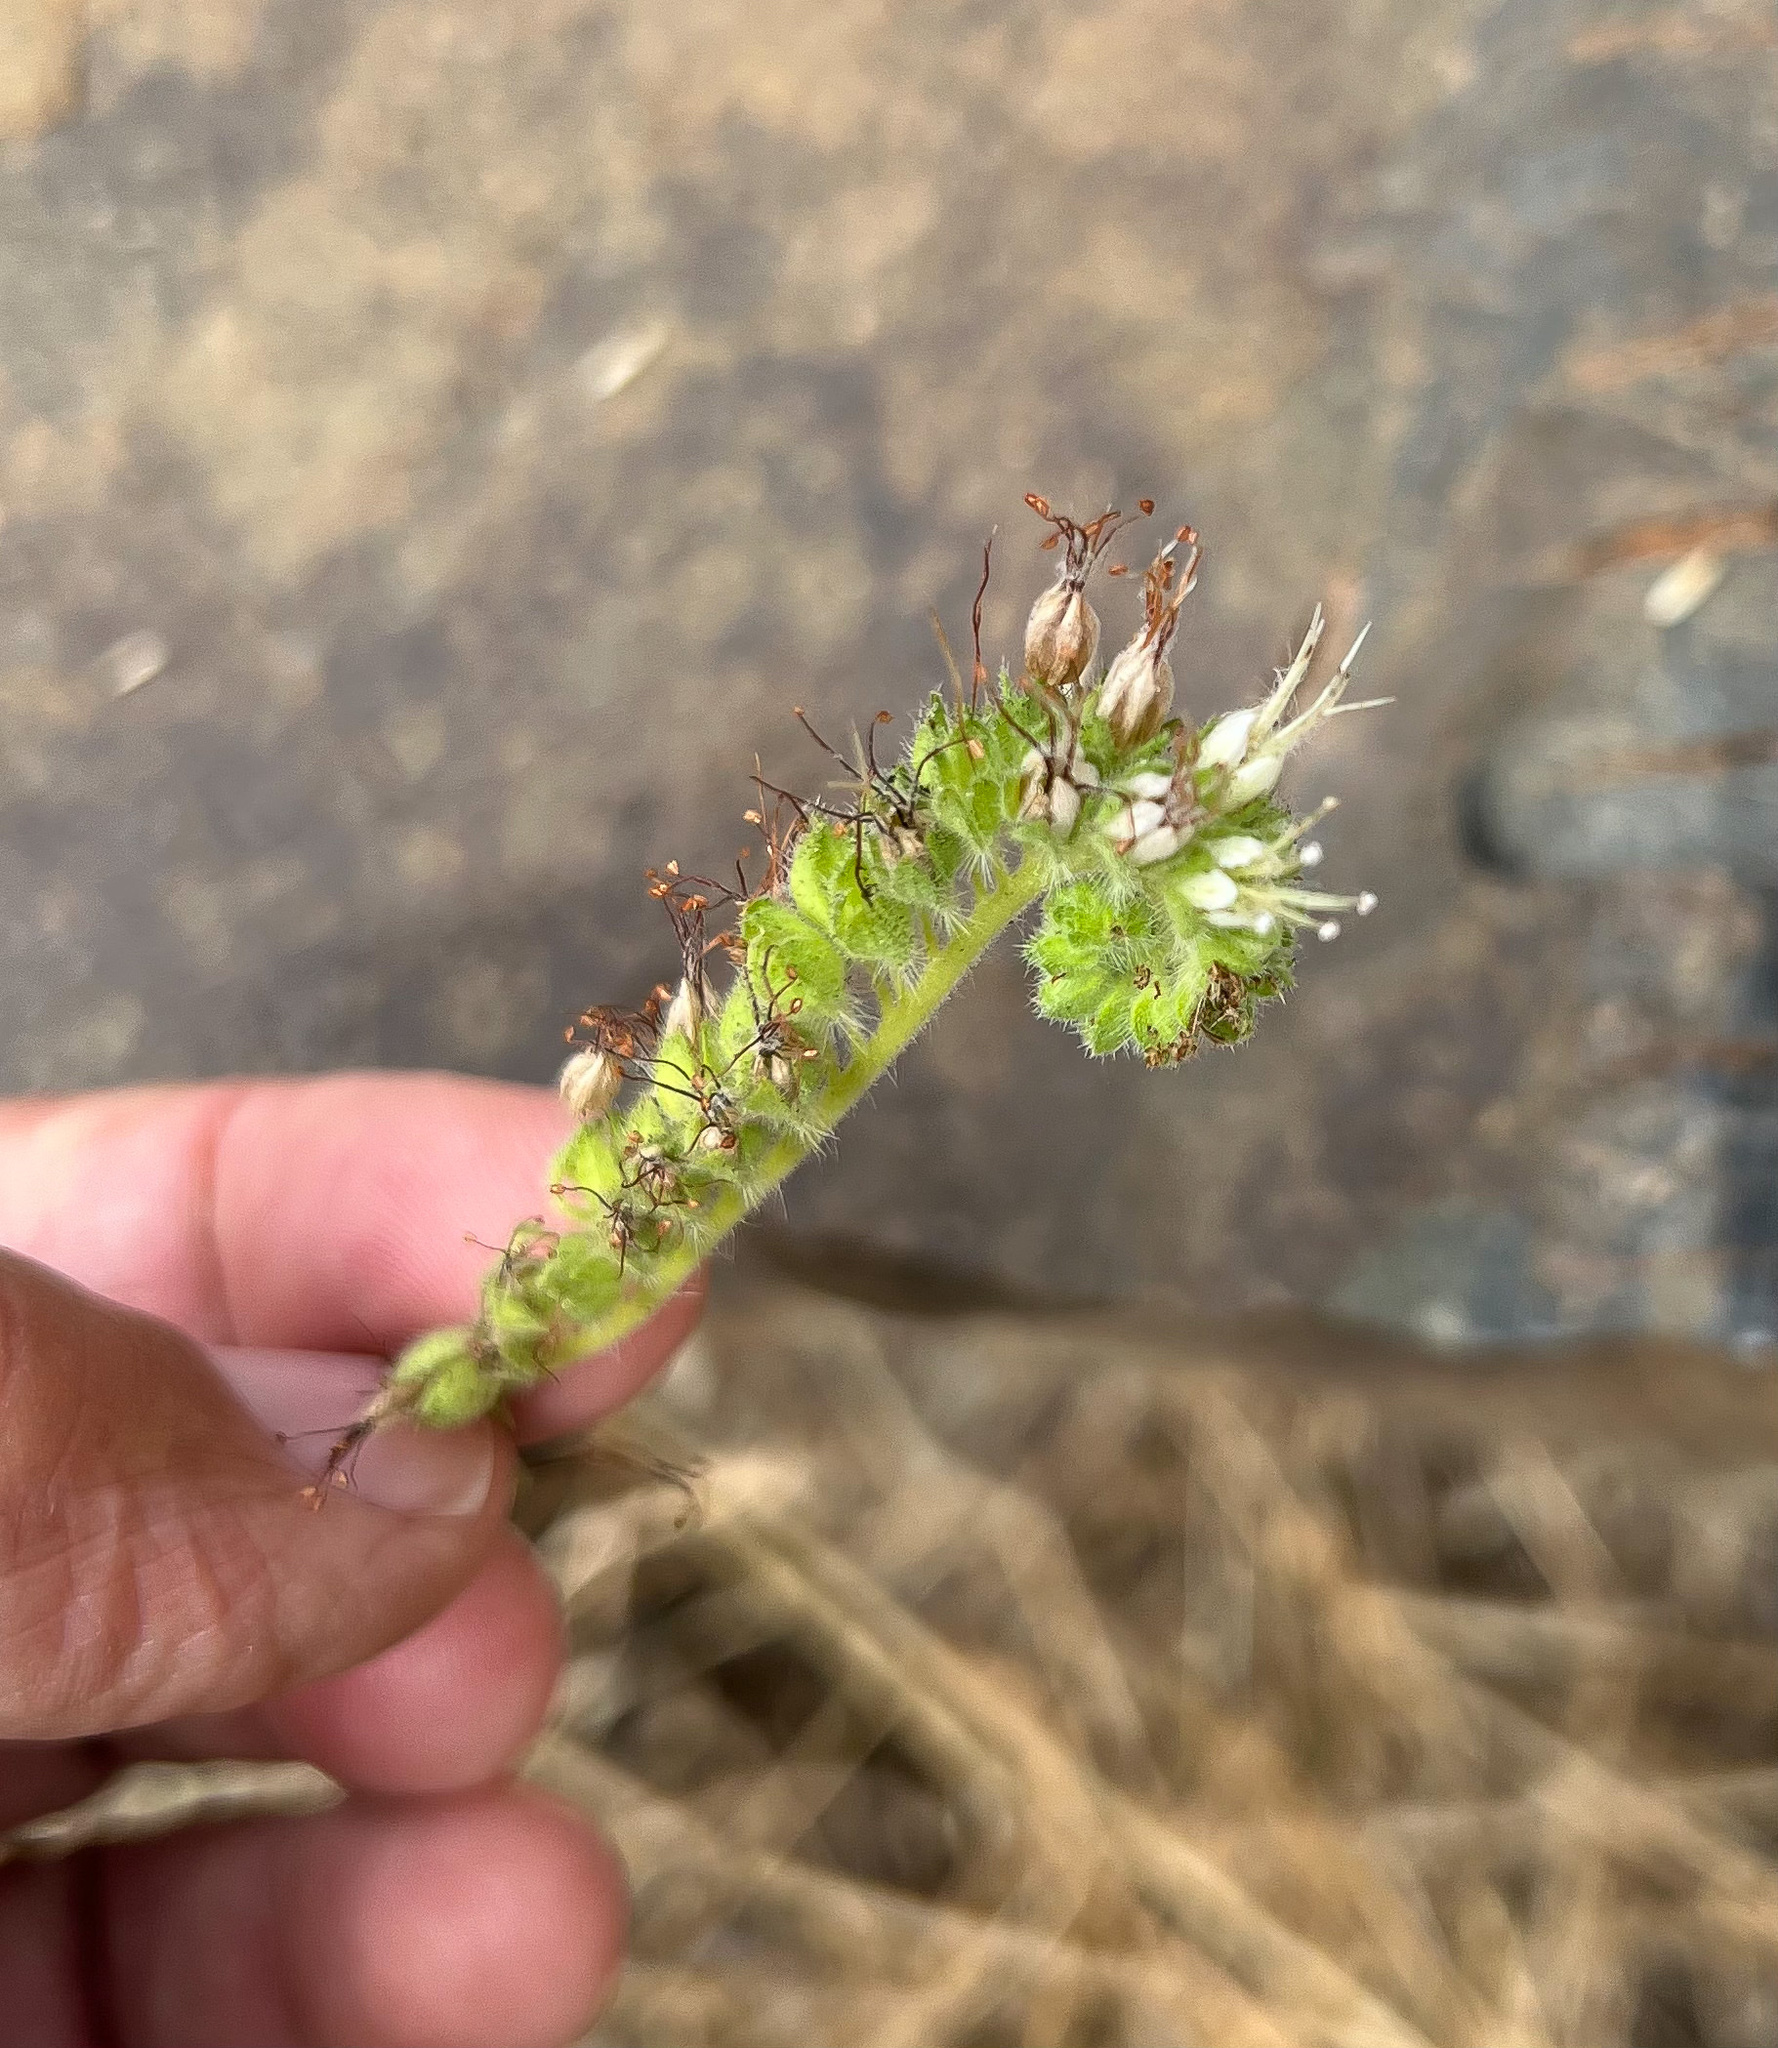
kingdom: Plantae
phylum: Tracheophyta
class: Magnoliopsida
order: Boraginales
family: Hydrophyllaceae
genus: Phacelia
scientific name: Phacelia imbricata
